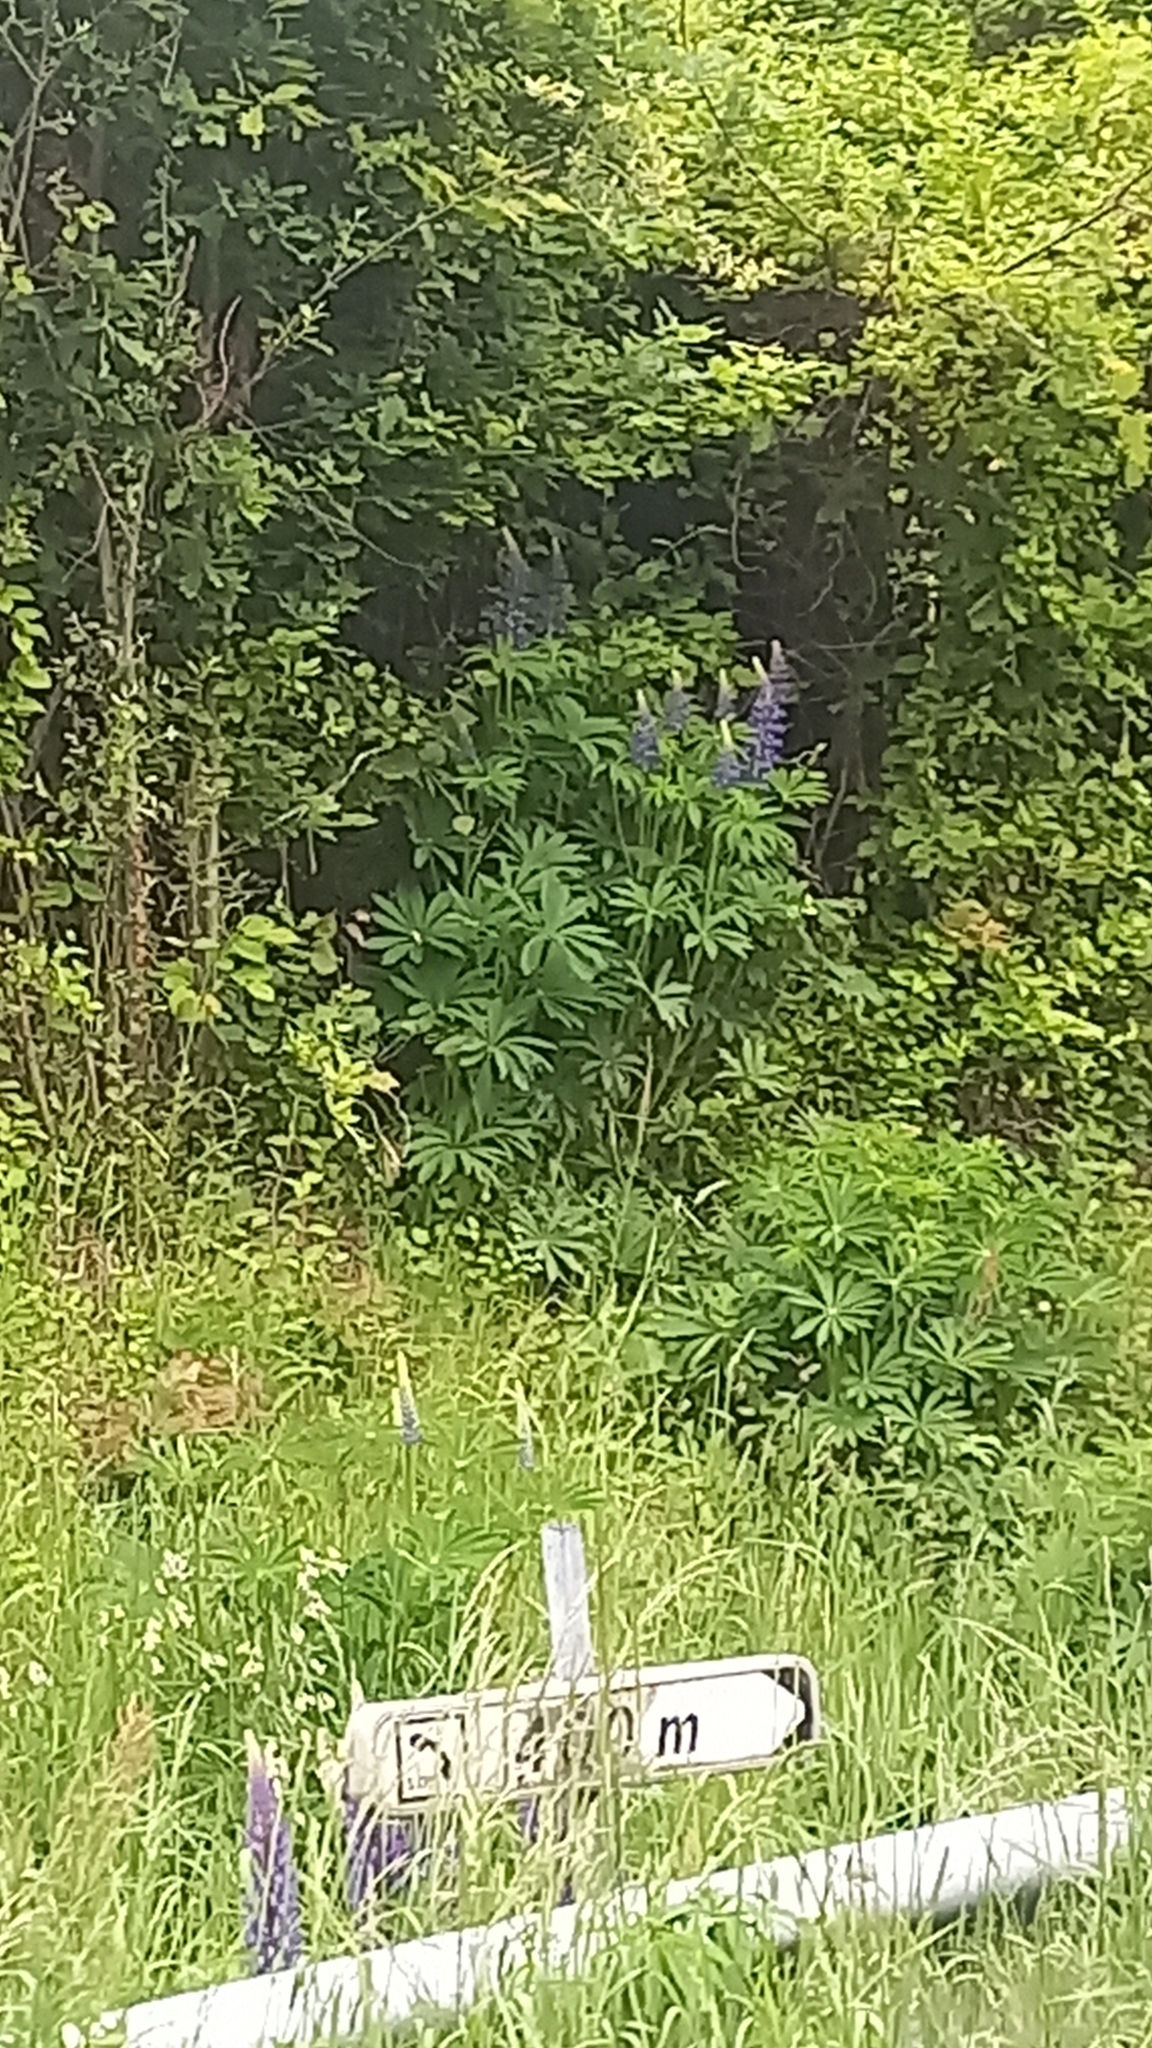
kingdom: Plantae
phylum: Tracheophyta
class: Magnoliopsida
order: Fabales
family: Fabaceae
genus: Lupinus
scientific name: Lupinus polyphyllus
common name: Garden lupin
